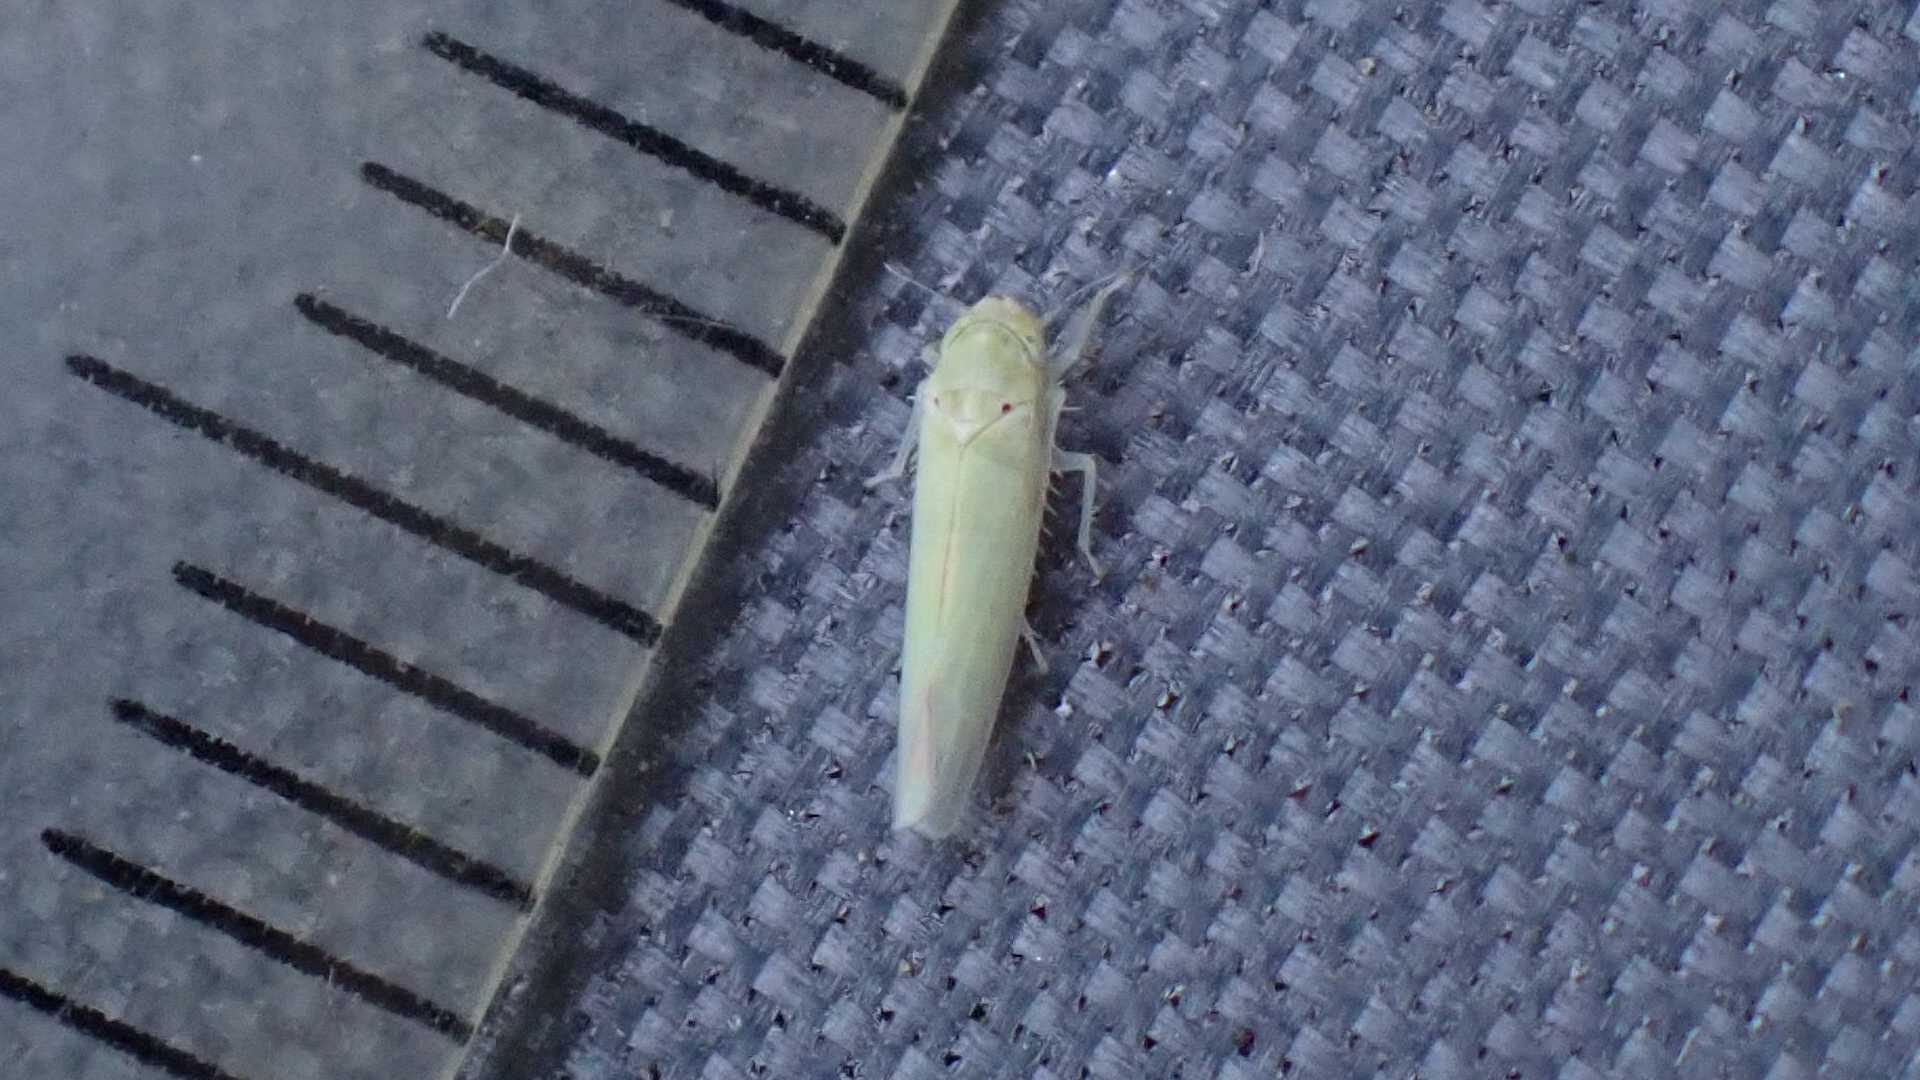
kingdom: Animalia
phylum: Arthropoda
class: Insecta
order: Hemiptera
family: Cicadellidae
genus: Zygina
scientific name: Zygina nivea
